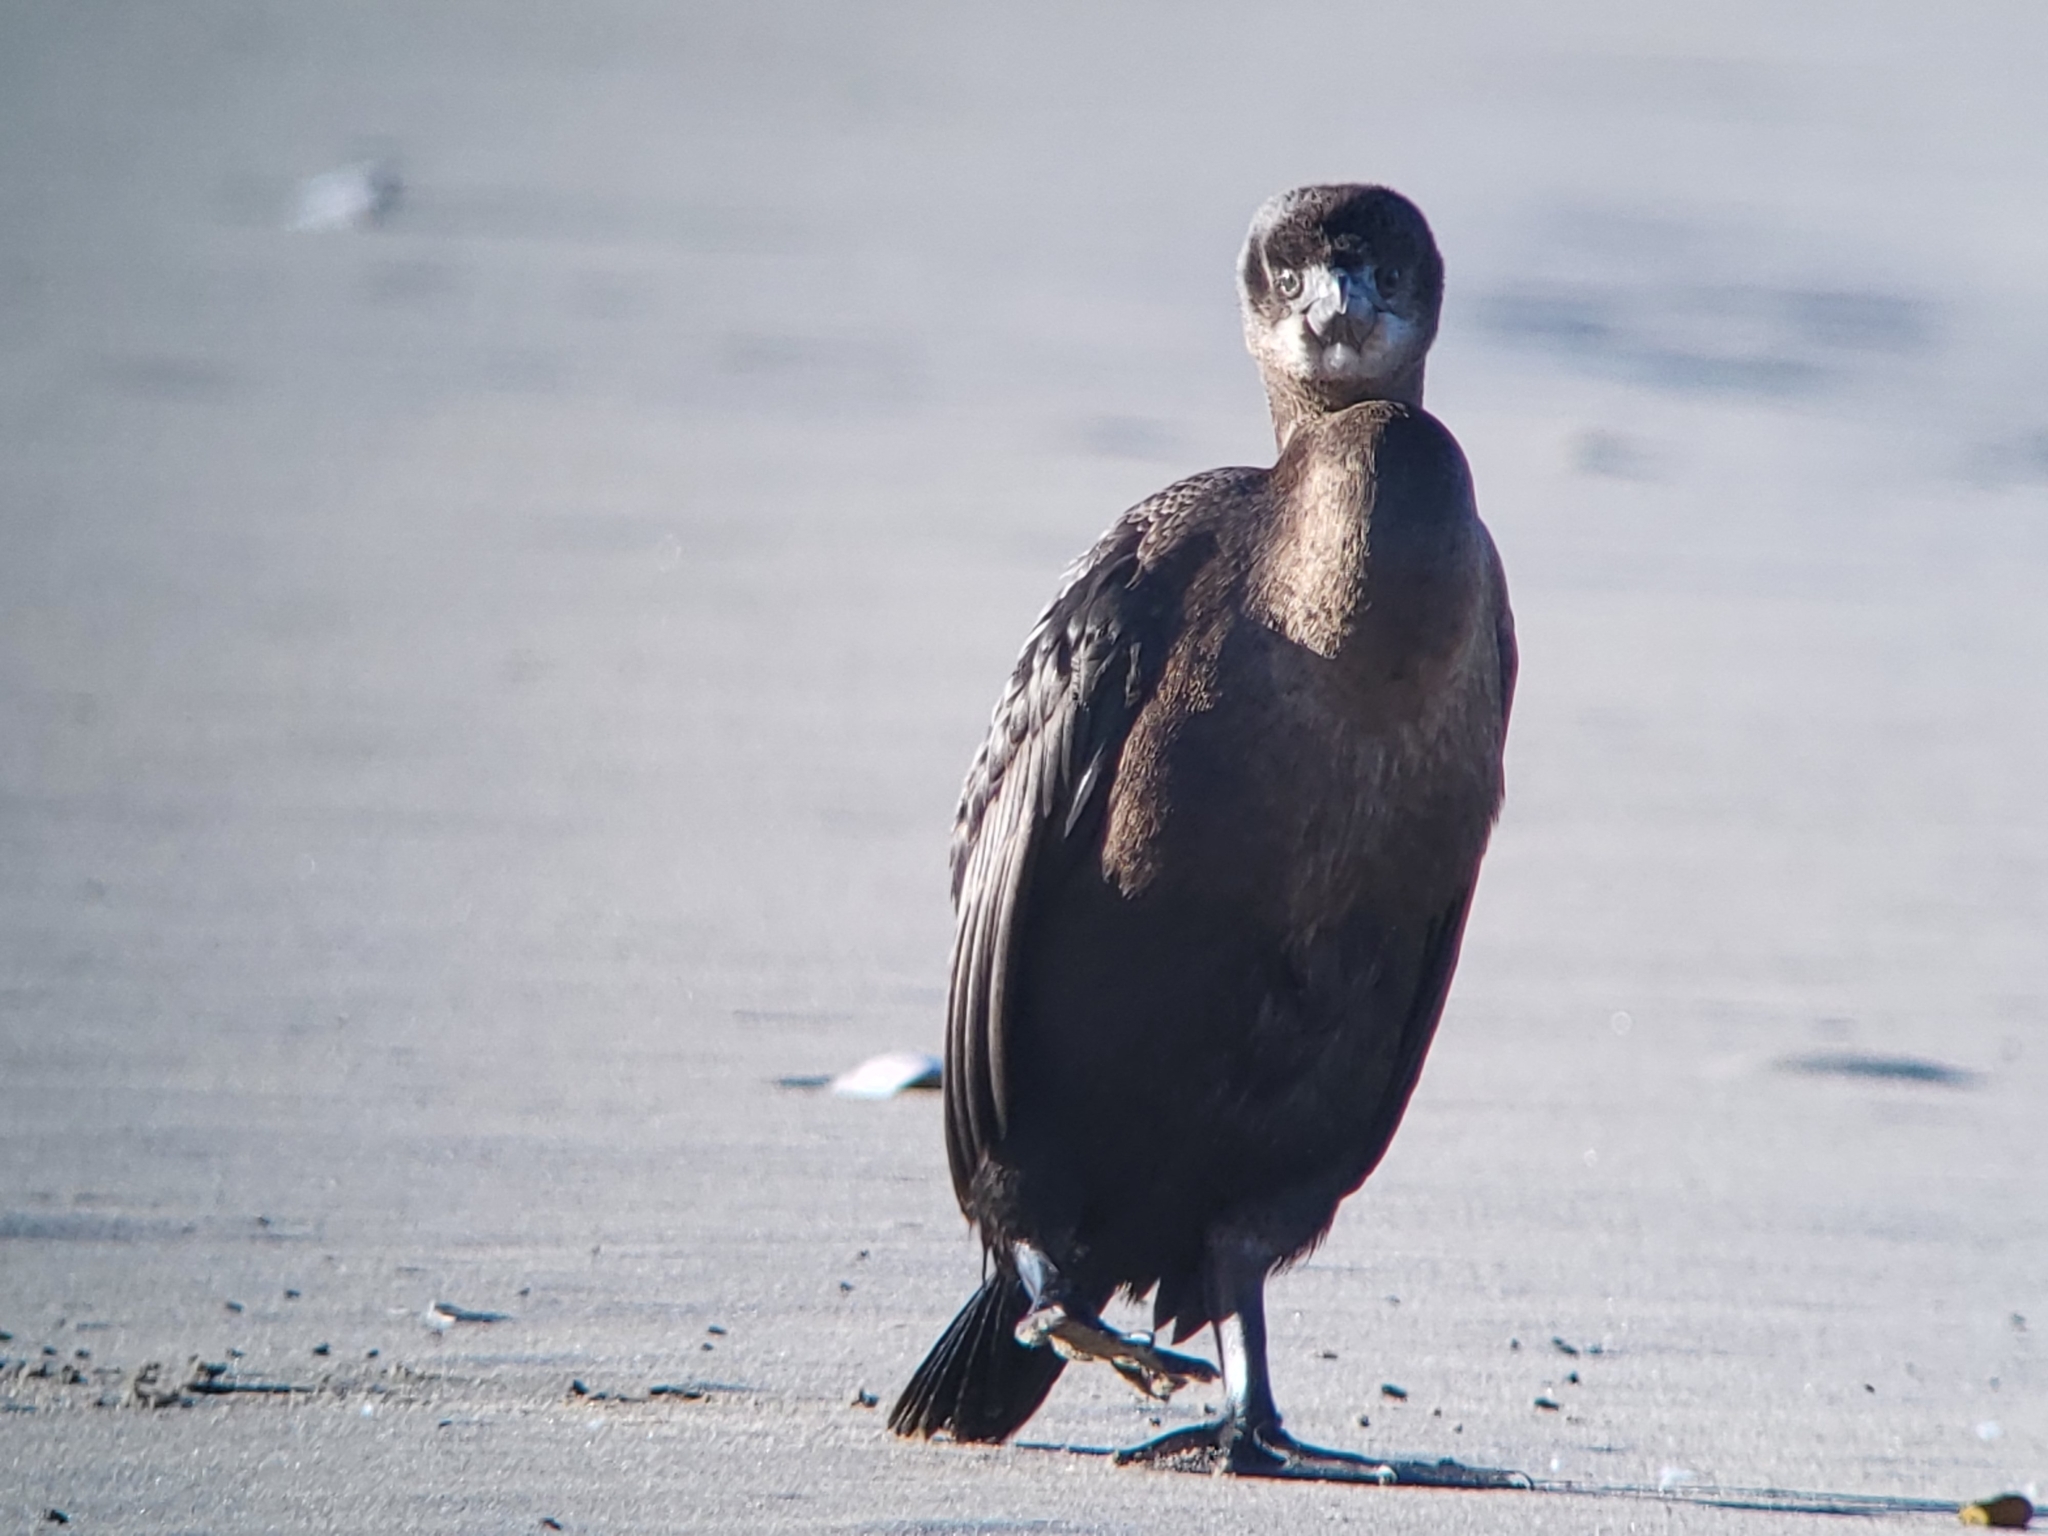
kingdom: Animalia
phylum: Chordata
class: Aves
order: Suliformes
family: Phalacrocoracidae
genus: Urile
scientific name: Urile penicillatus
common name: Brandt's cormorant
